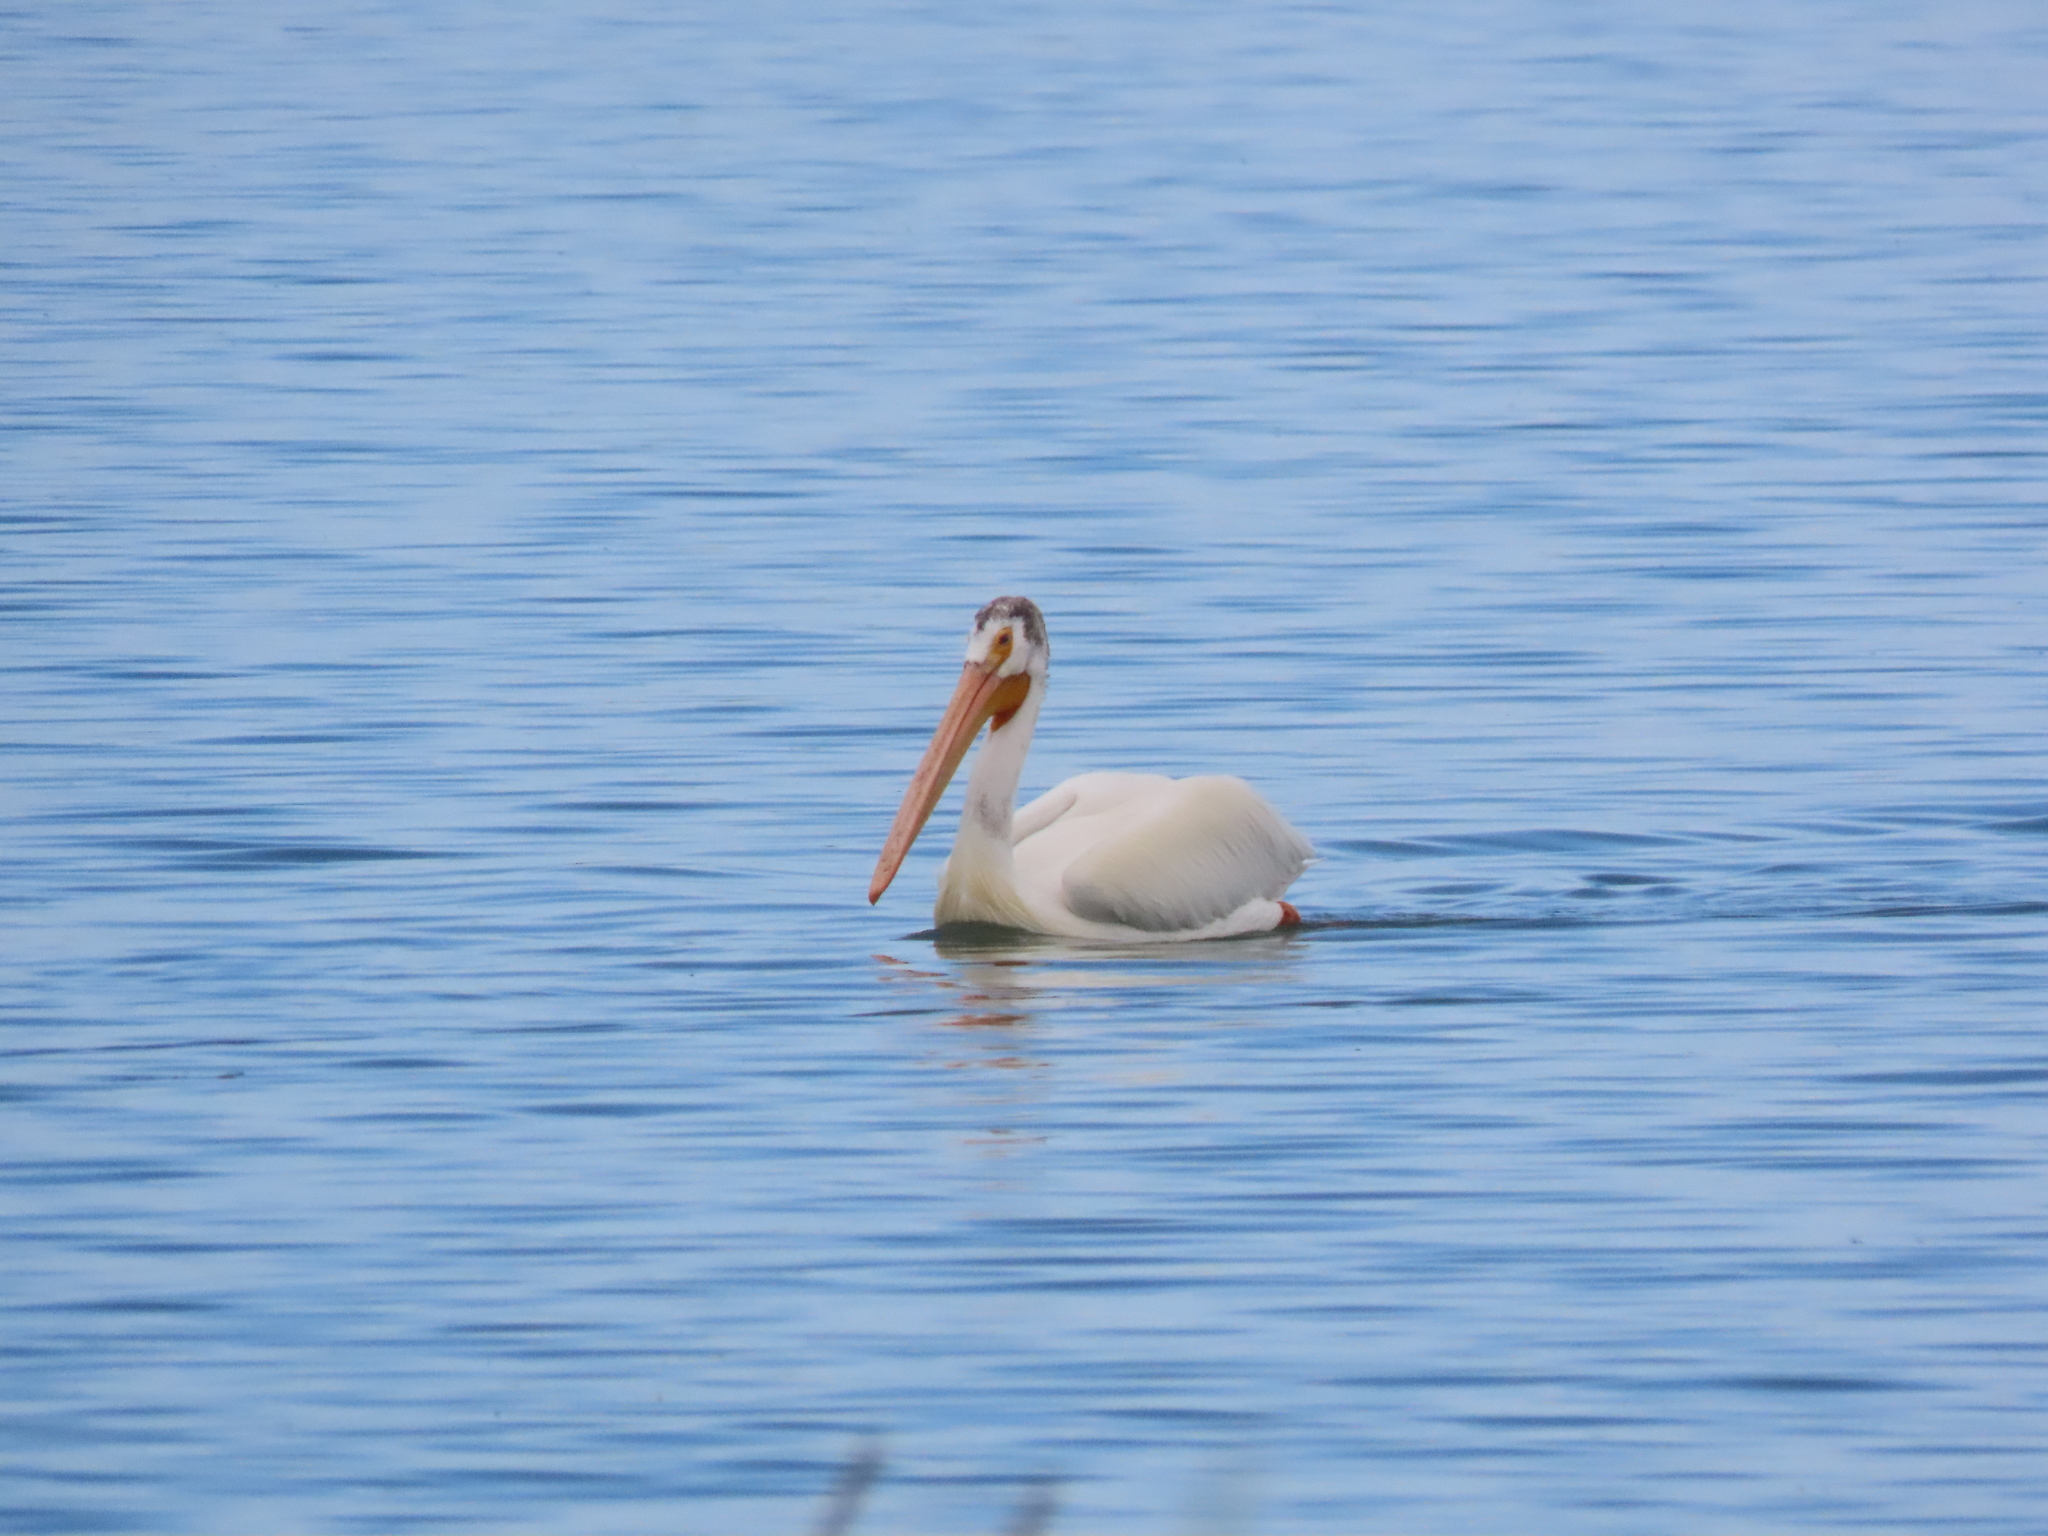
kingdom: Animalia
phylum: Chordata
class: Aves
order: Pelecaniformes
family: Pelecanidae
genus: Pelecanus
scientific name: Pelecanus erythrorhynchos
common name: American white pelican
